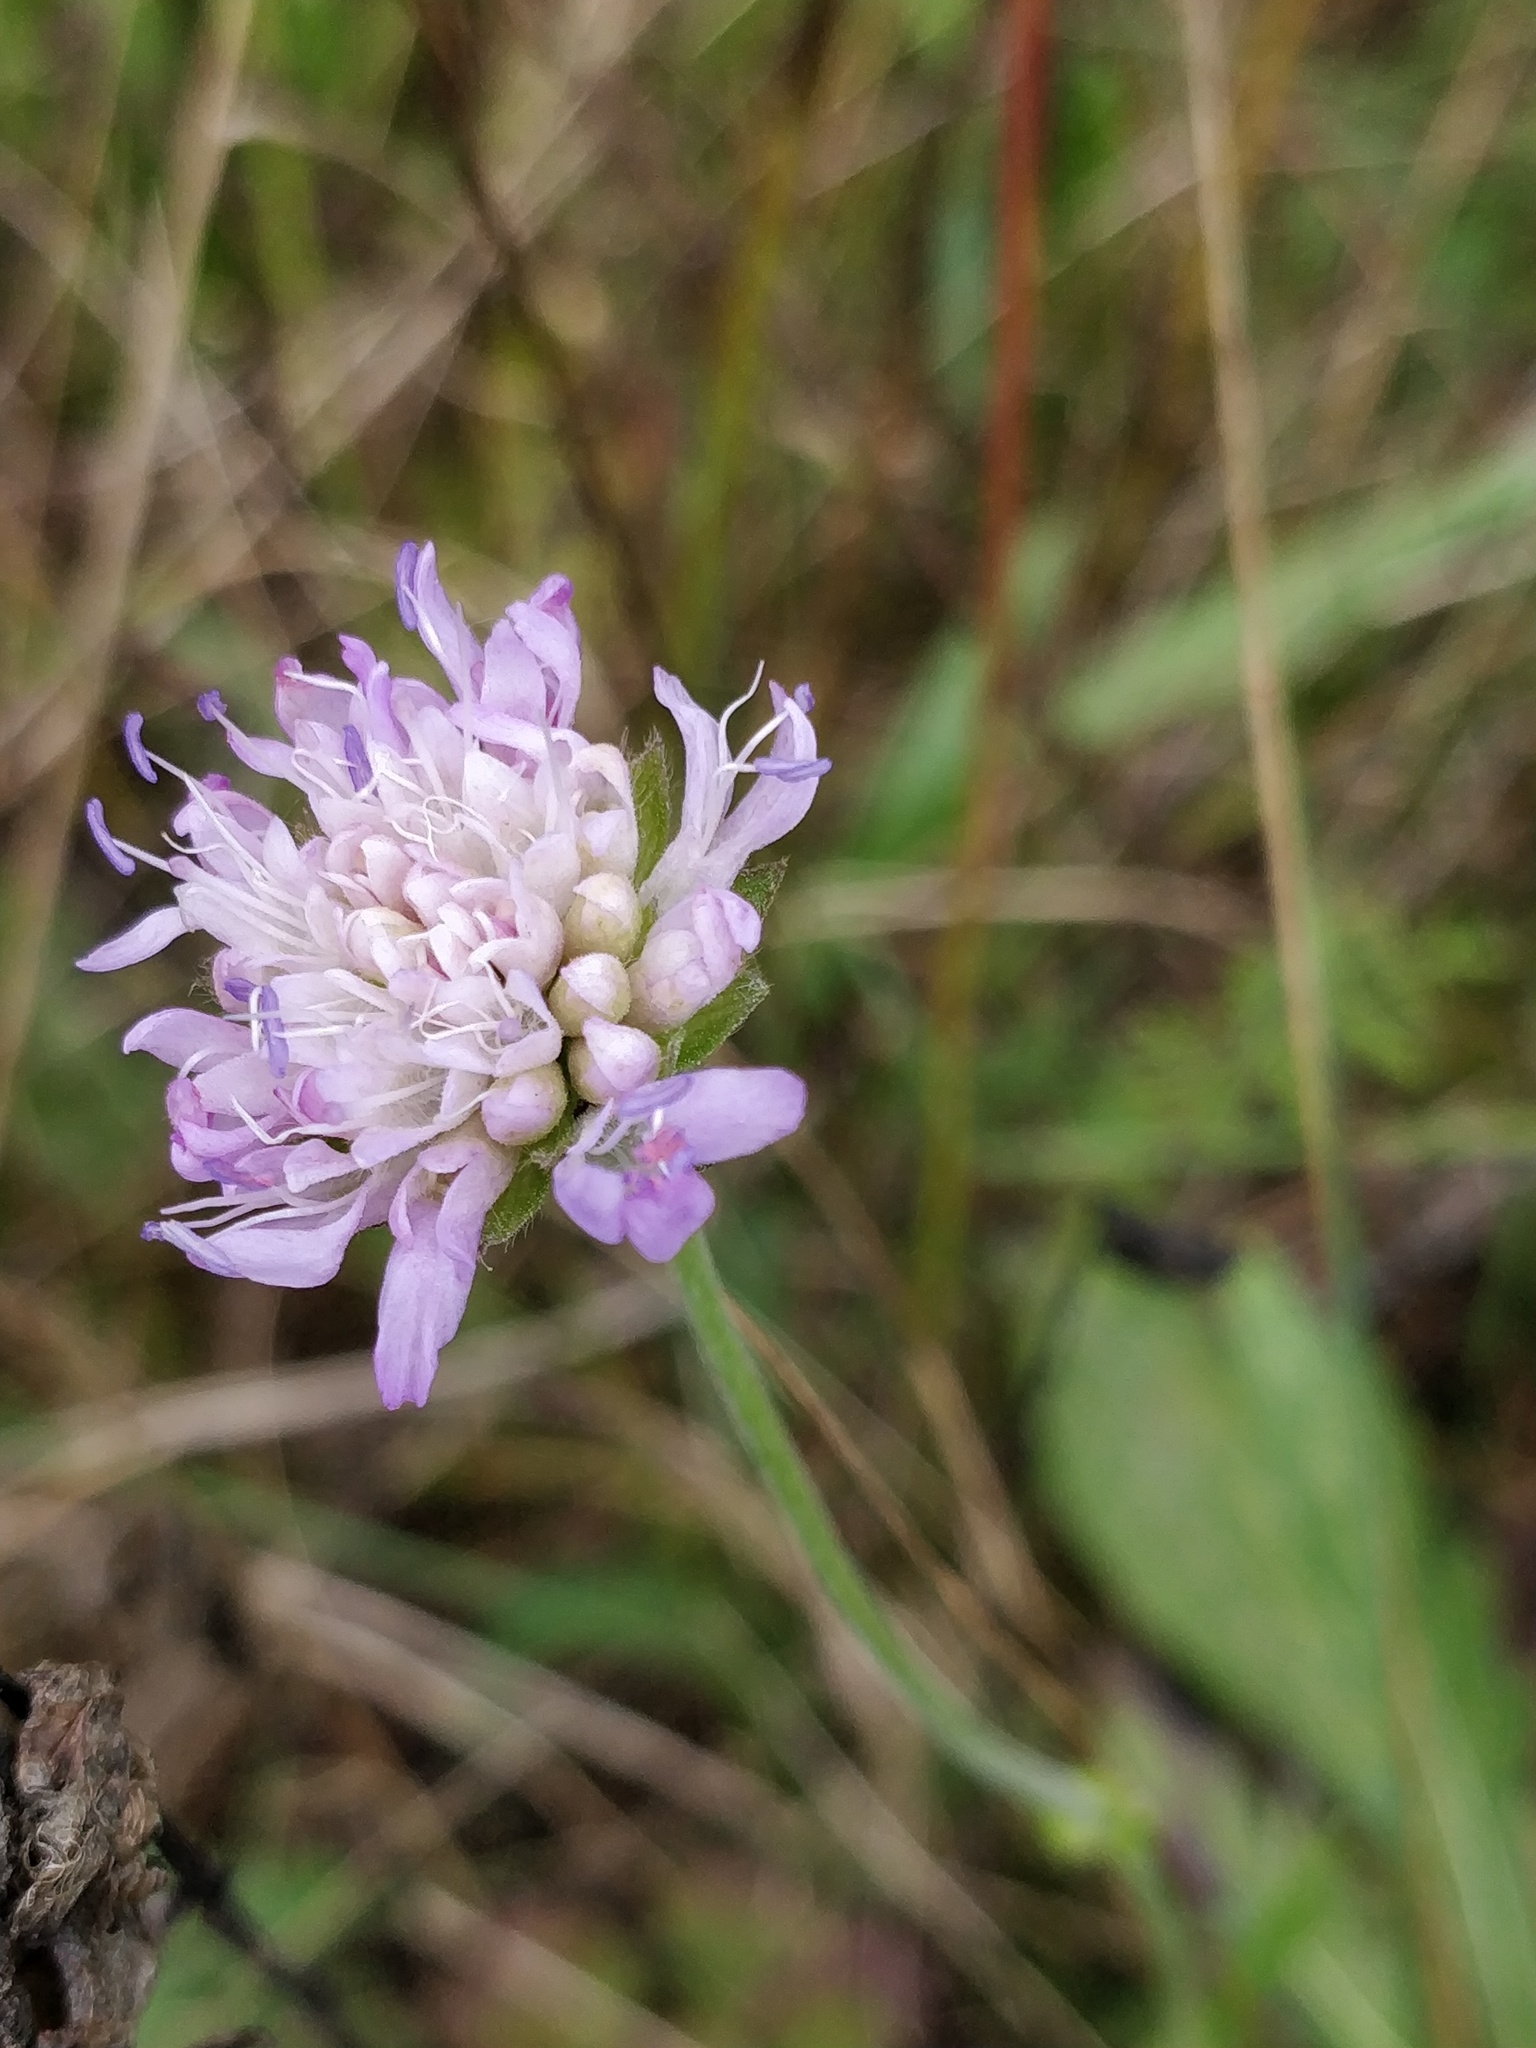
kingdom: Plantae
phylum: Tracheophyta
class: Magnoliopsida
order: Dipsacales
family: Caprifoliaceae
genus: Knautia
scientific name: Knautia arvensis
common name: Field scabiosa
